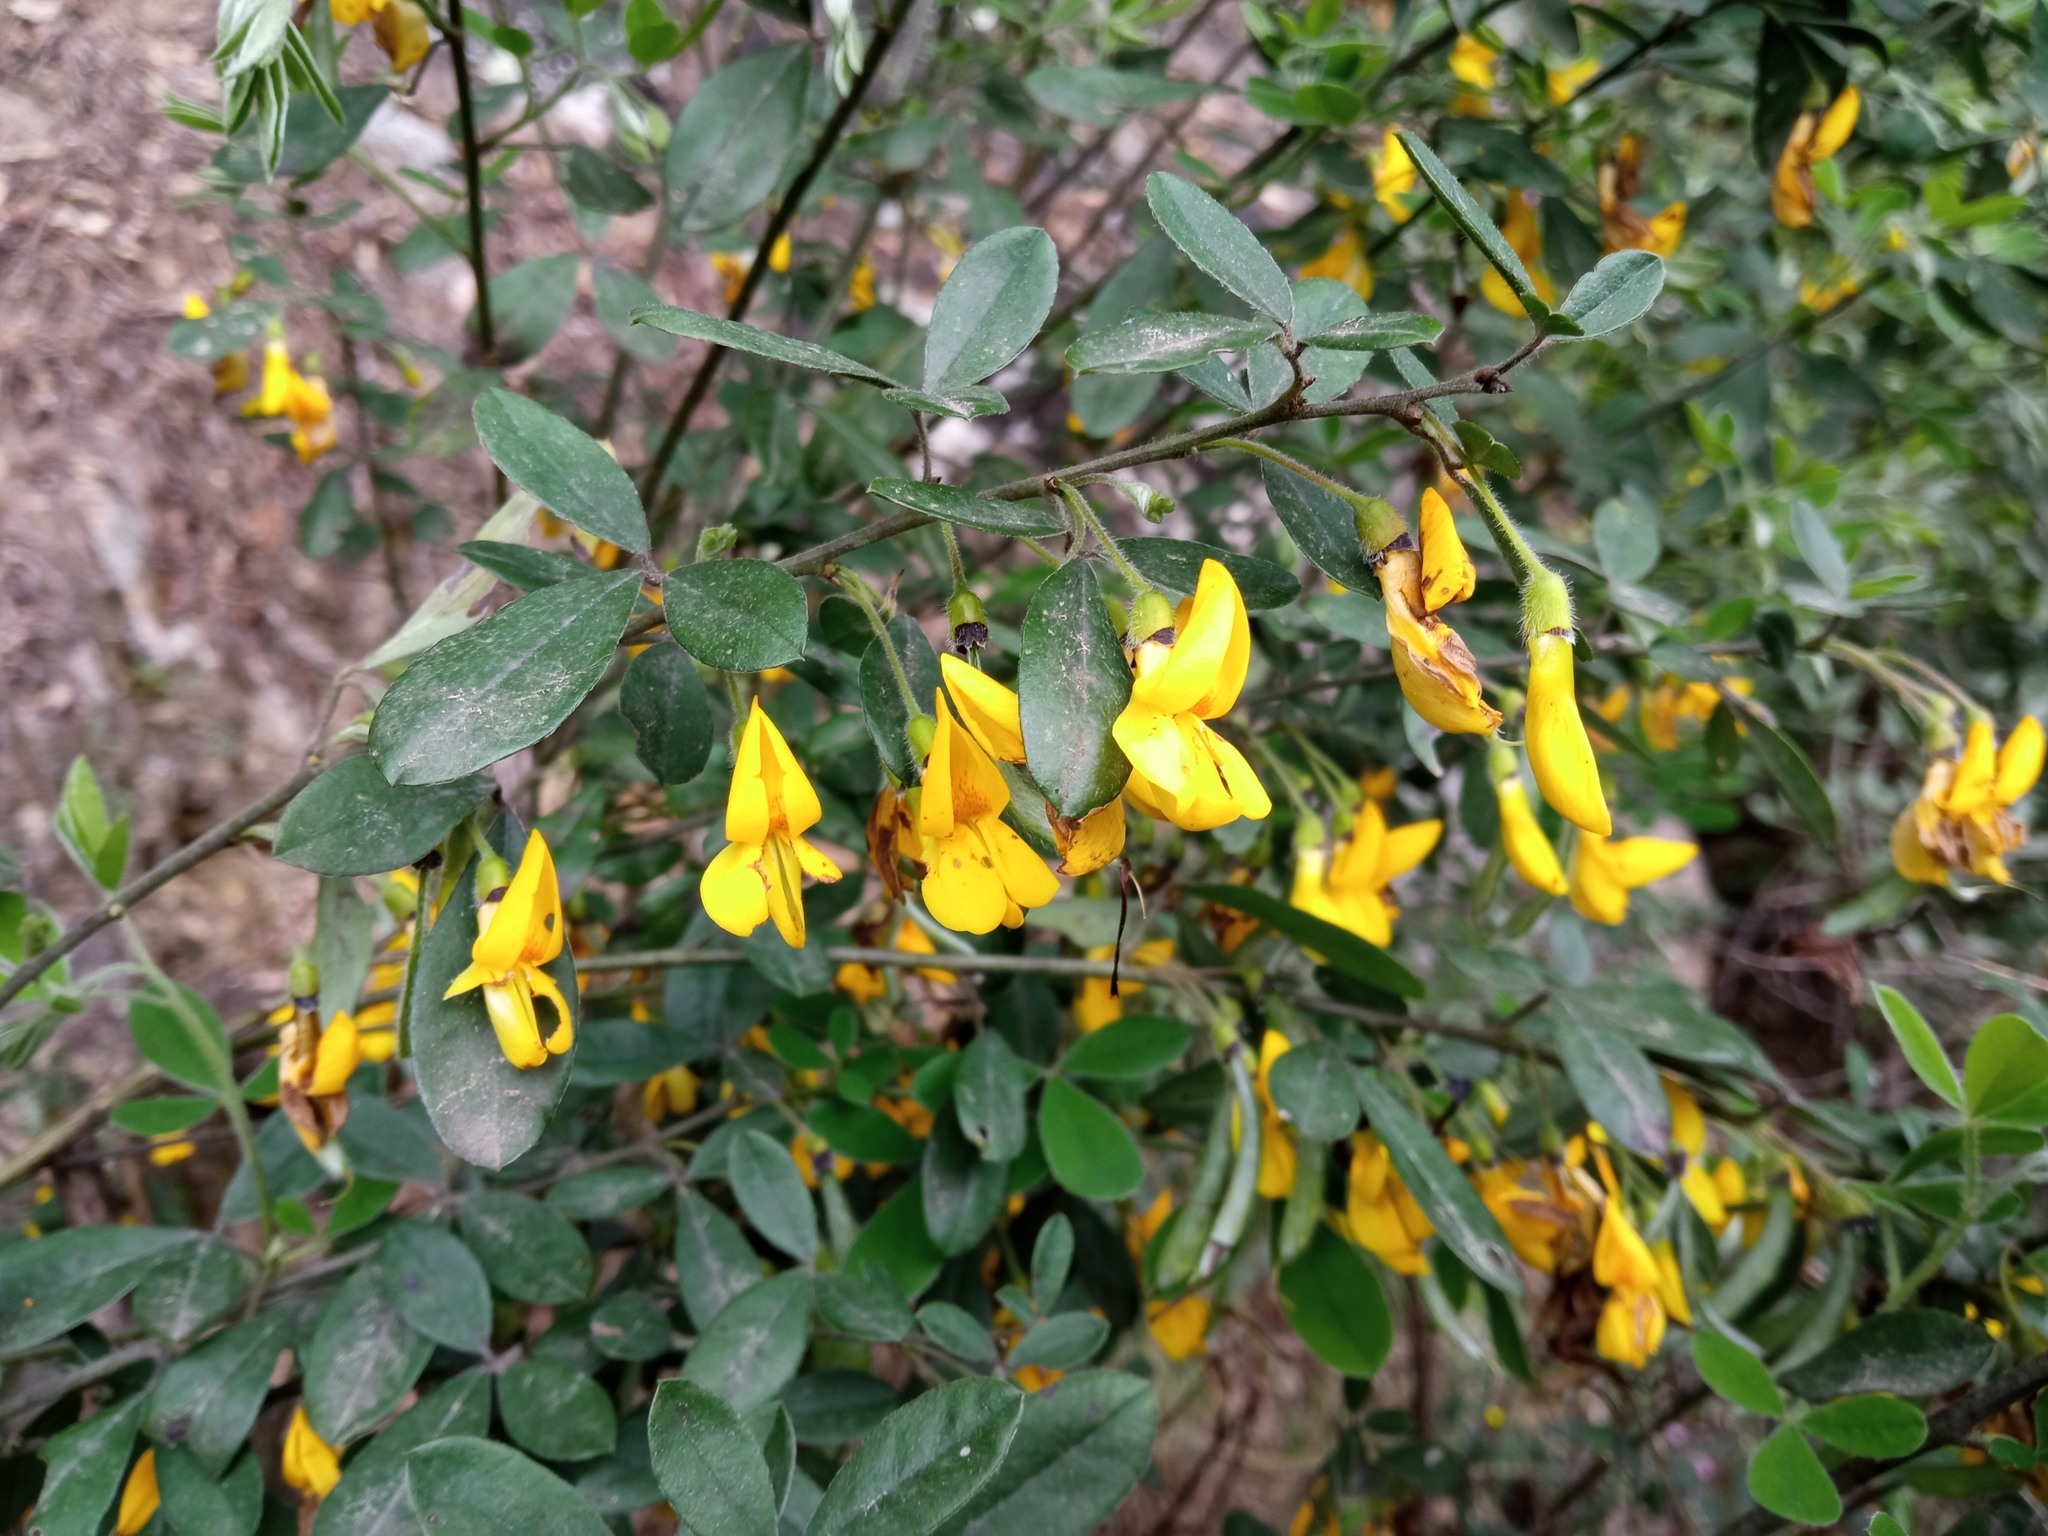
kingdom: Plantae
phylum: Tracheophyta
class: Magnoliopsida
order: Fabales
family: Fabaceae
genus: Cytisus
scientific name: Cytisus villosus
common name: Hairybroom
